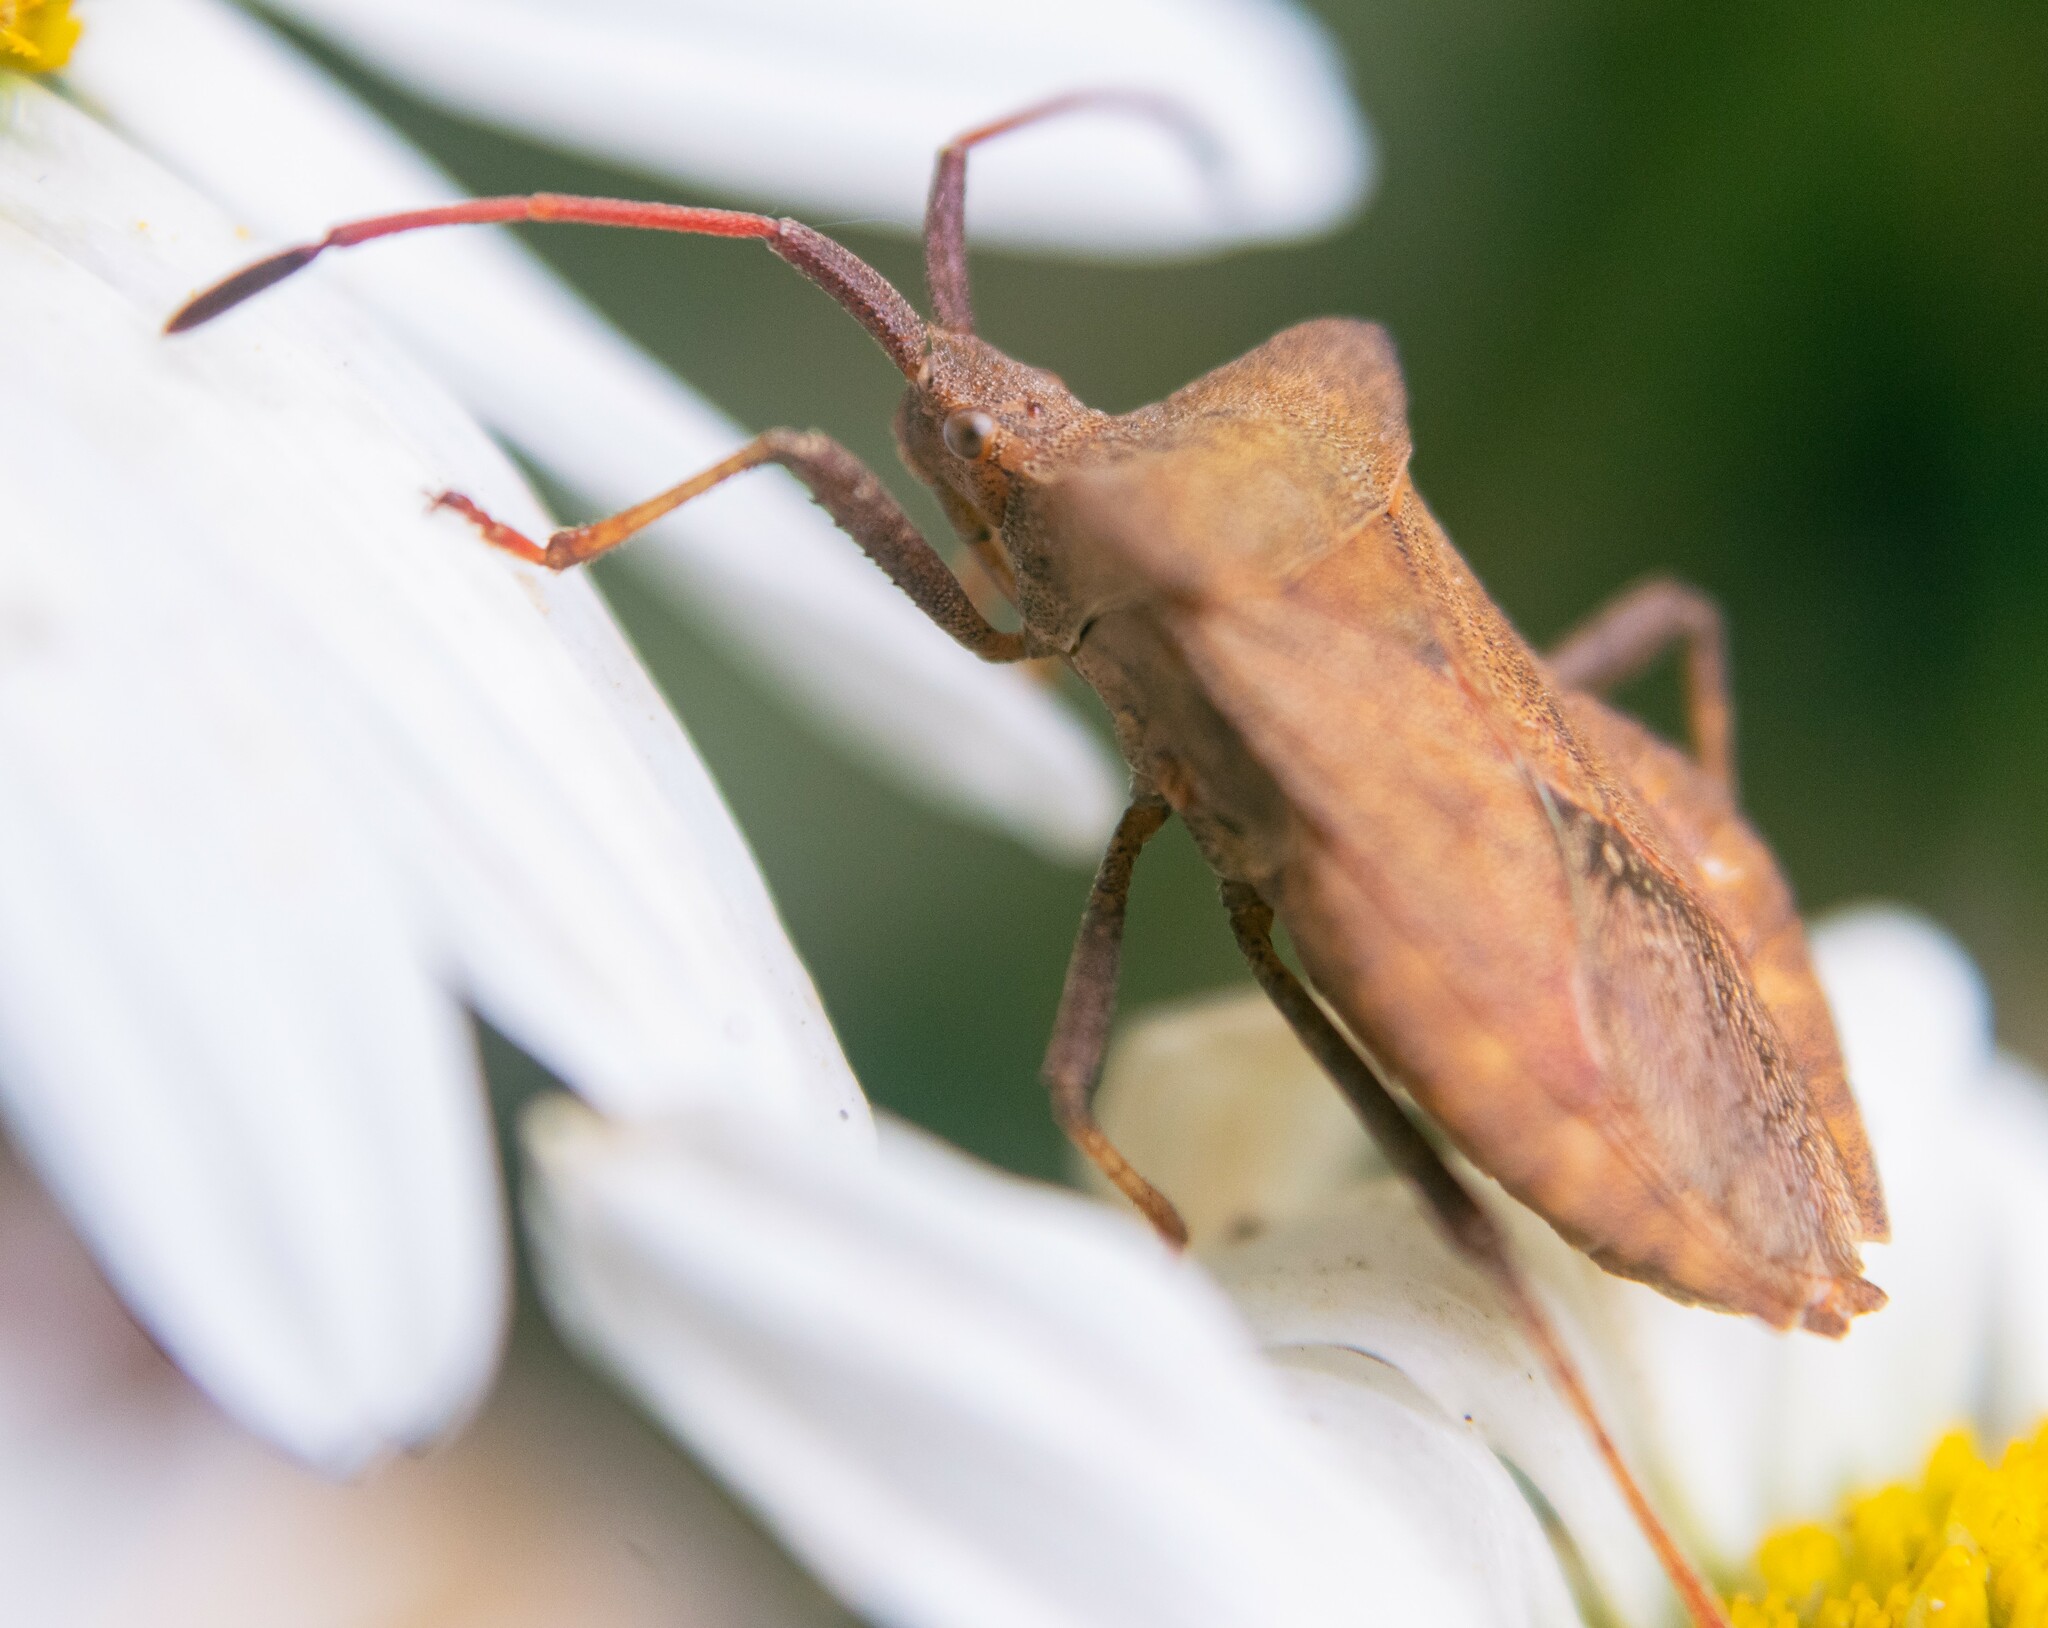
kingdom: Animalia
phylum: Arthropoda
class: Insecta
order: Hemiptera
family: Coreidae
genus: Coreus
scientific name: Coreus marginatus
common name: Dock bug
